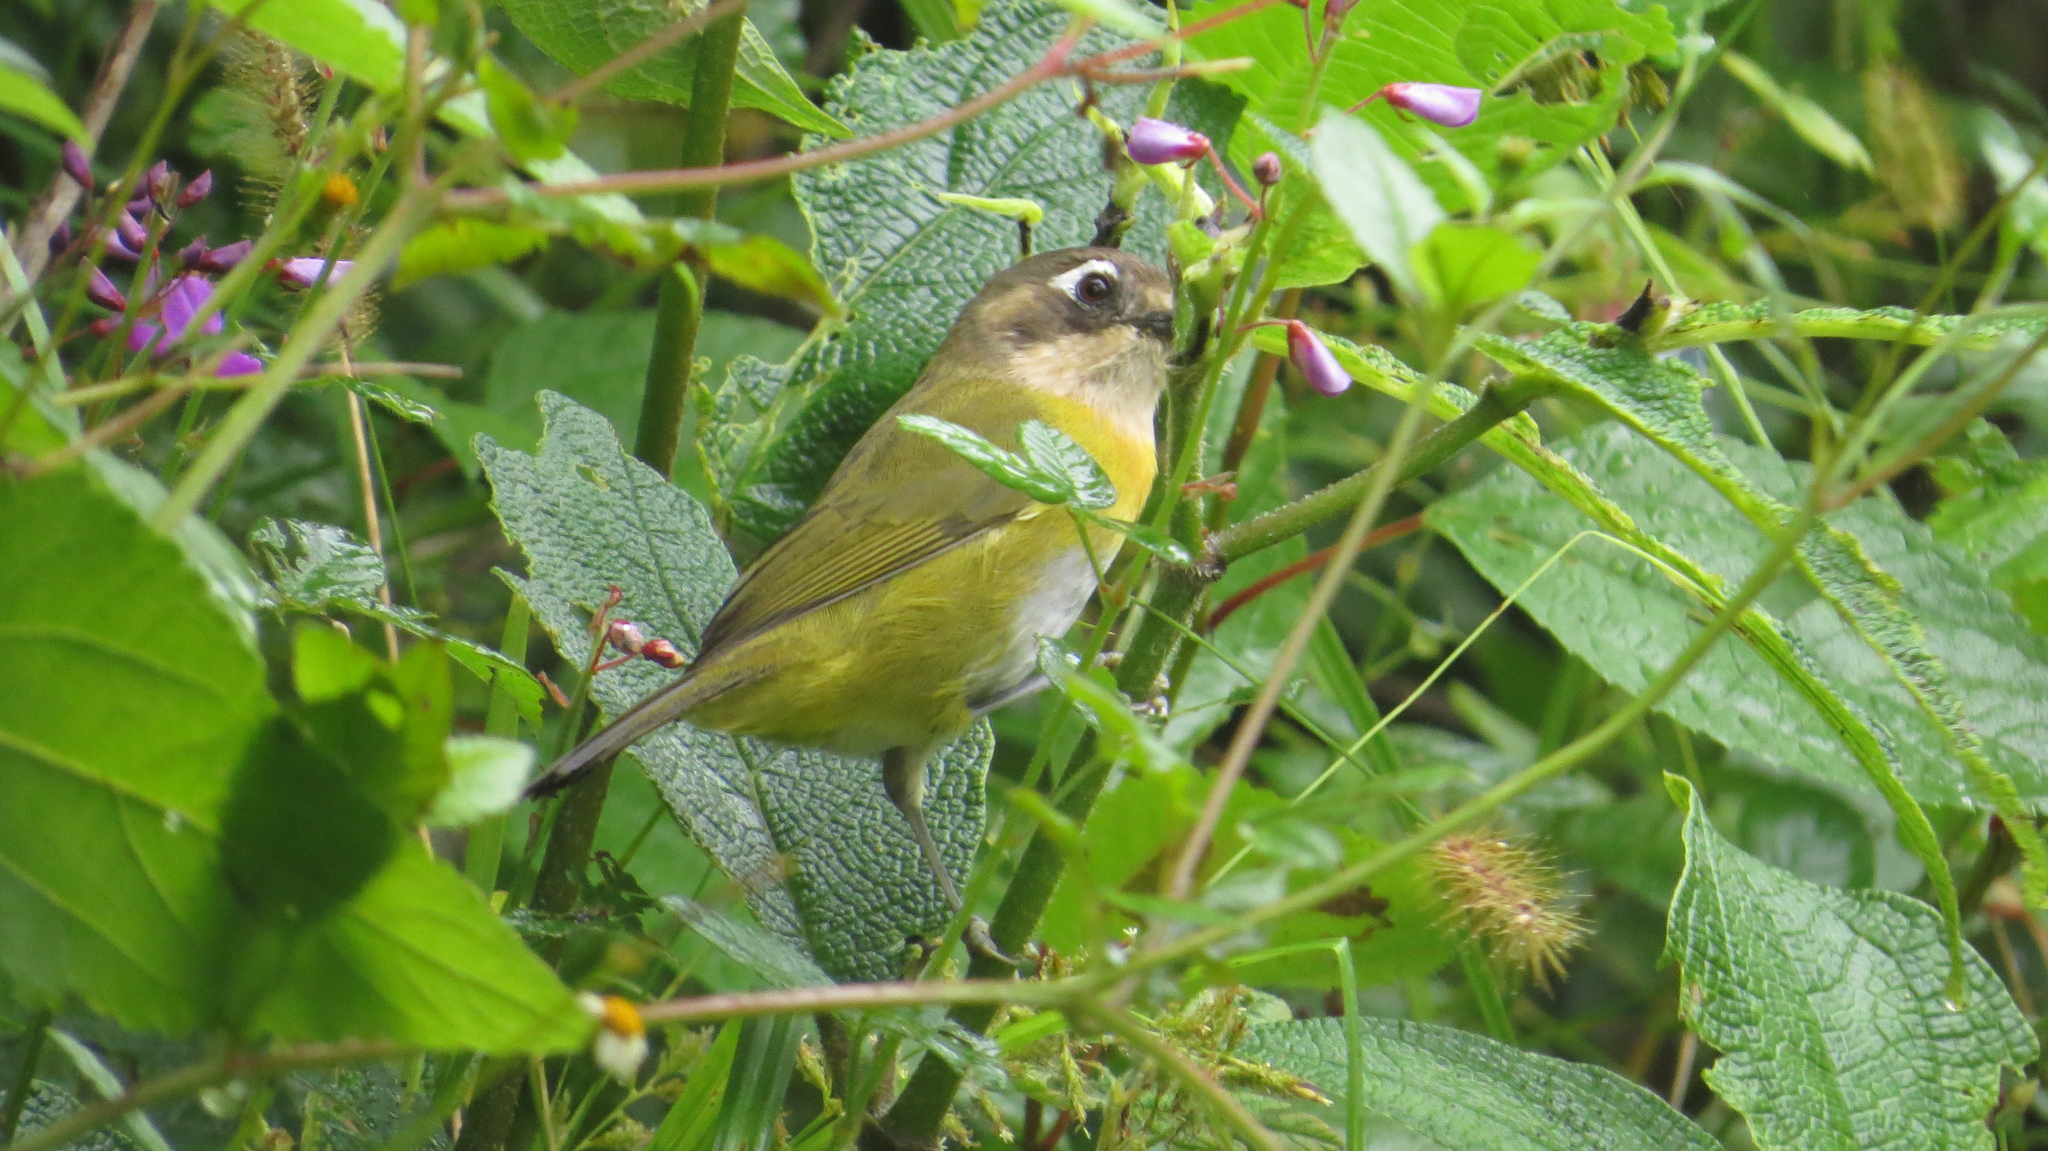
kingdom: Animalia
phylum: Chordata
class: Aves
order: Passeriformes
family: Passerellidae
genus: Chlorospingus
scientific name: Chlorospingus flavopectus
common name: Common chlorospingus
